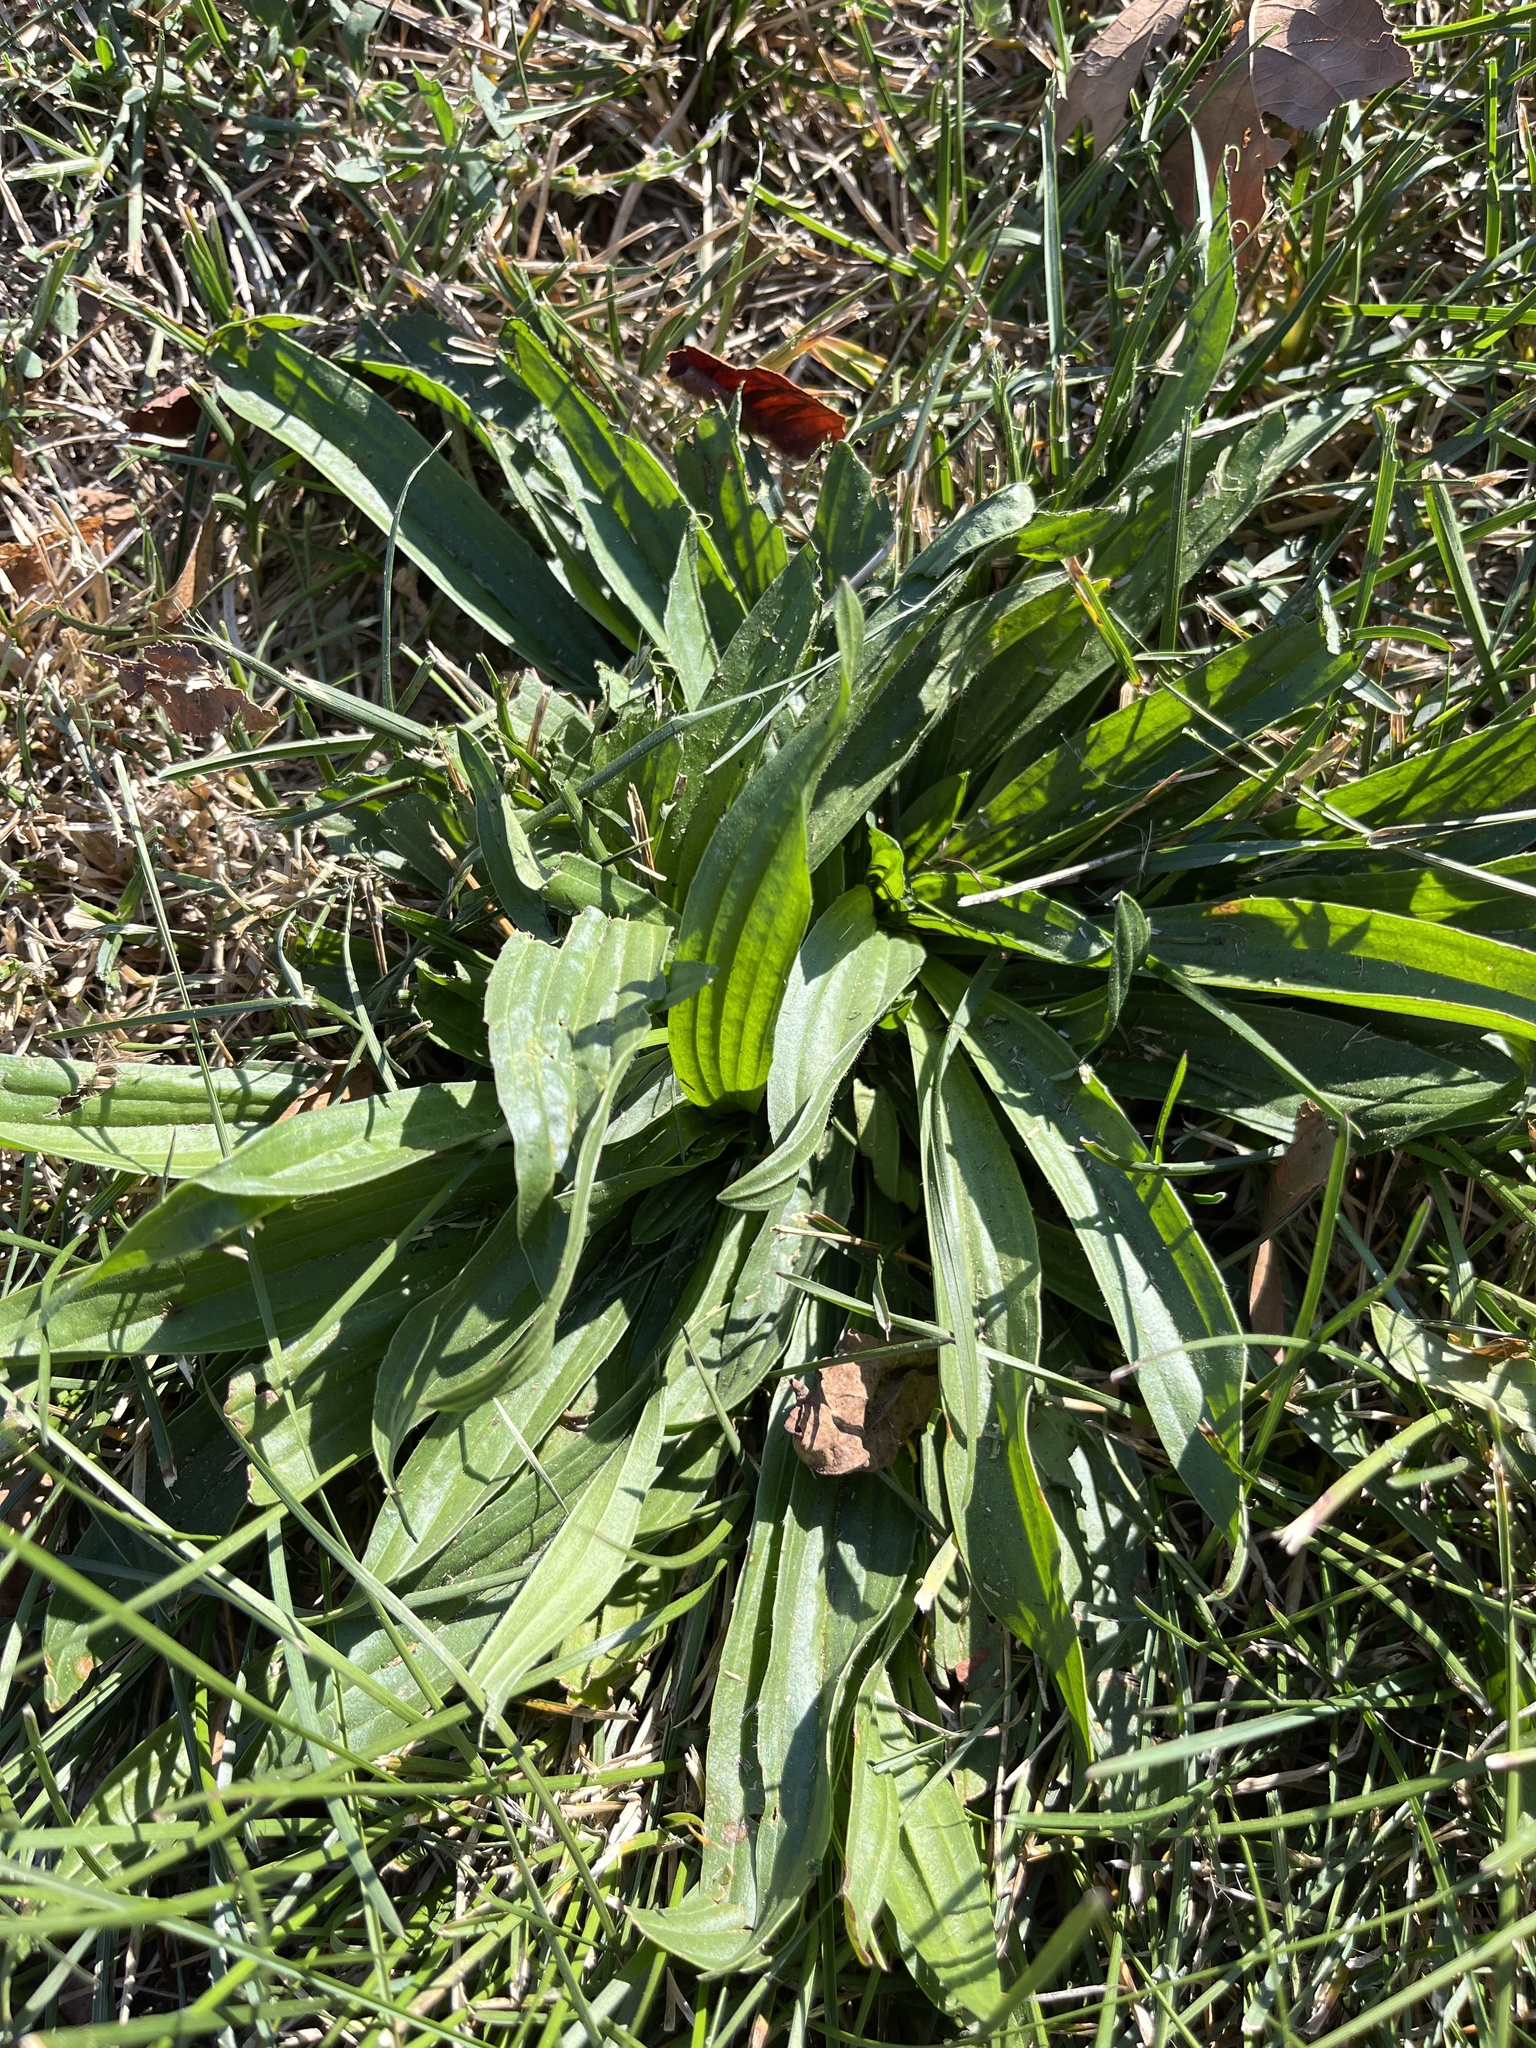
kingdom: Plantae
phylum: Tracheophyta
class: Magnoliopsida
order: Lamiales
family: Plantaginaceae
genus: Plantago
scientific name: Plantago lanceolata
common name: Ribwort plantain
